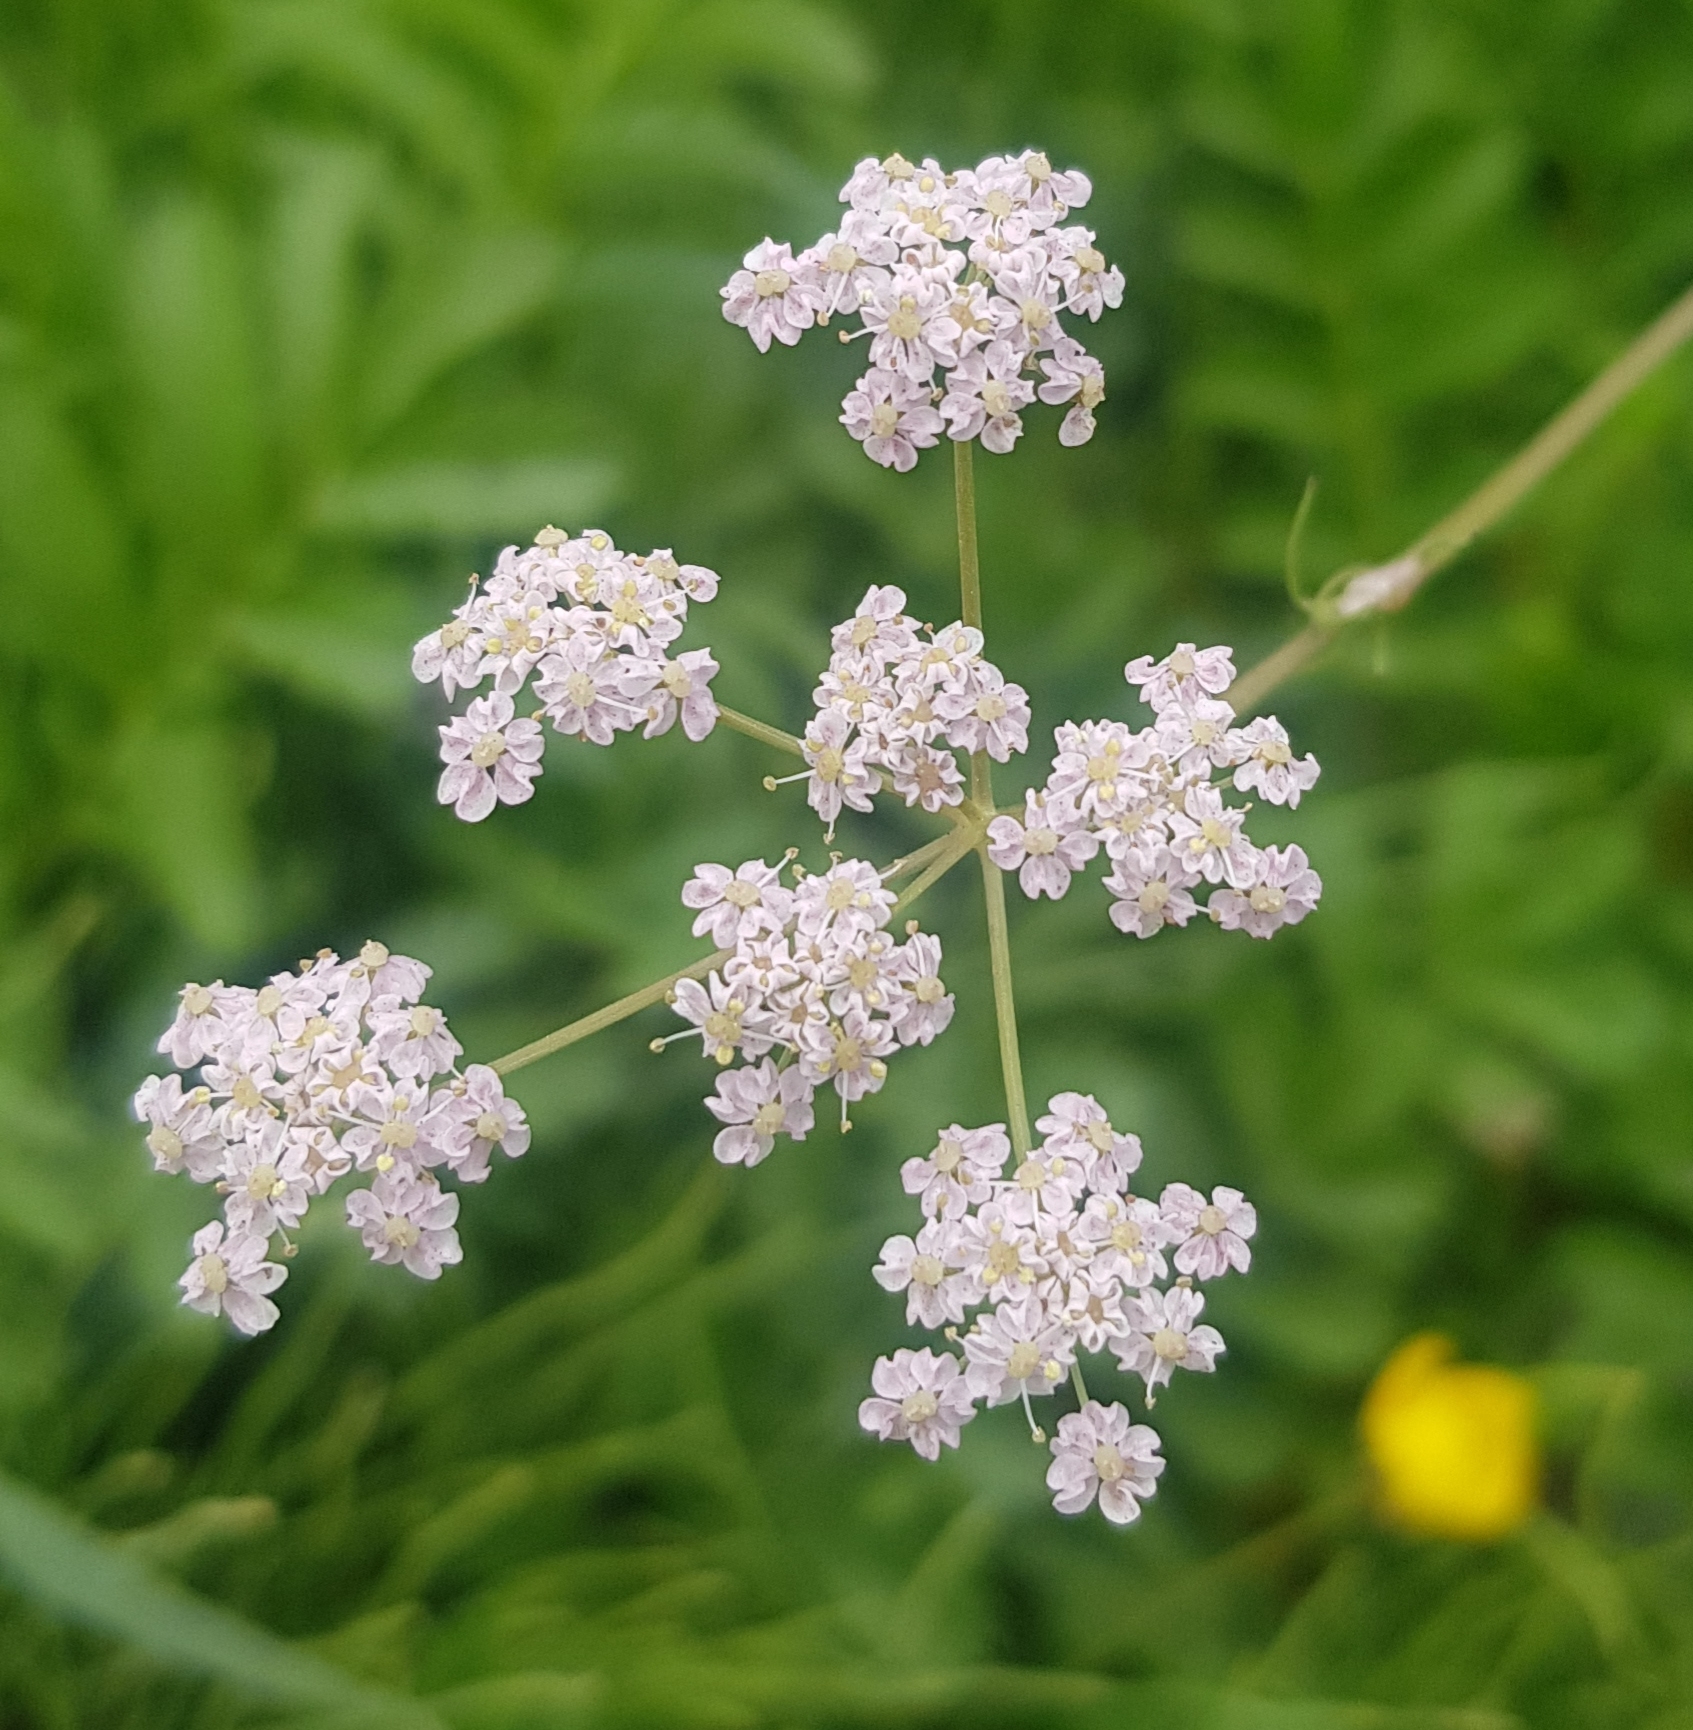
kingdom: Plantae
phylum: Tracheophyta
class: Magnoliopsida
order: Apiales
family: Apiaceae
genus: Carum
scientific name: Carum carvi
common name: Caraway
